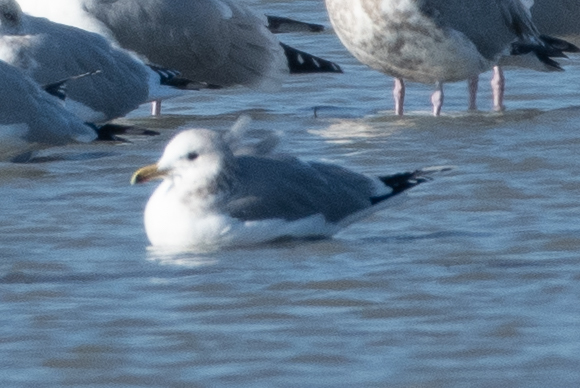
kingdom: Animalia
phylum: Chordata
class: Aves
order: Charadriiformes
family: Laridae
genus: Larus
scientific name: Larus californicus
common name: California gull
